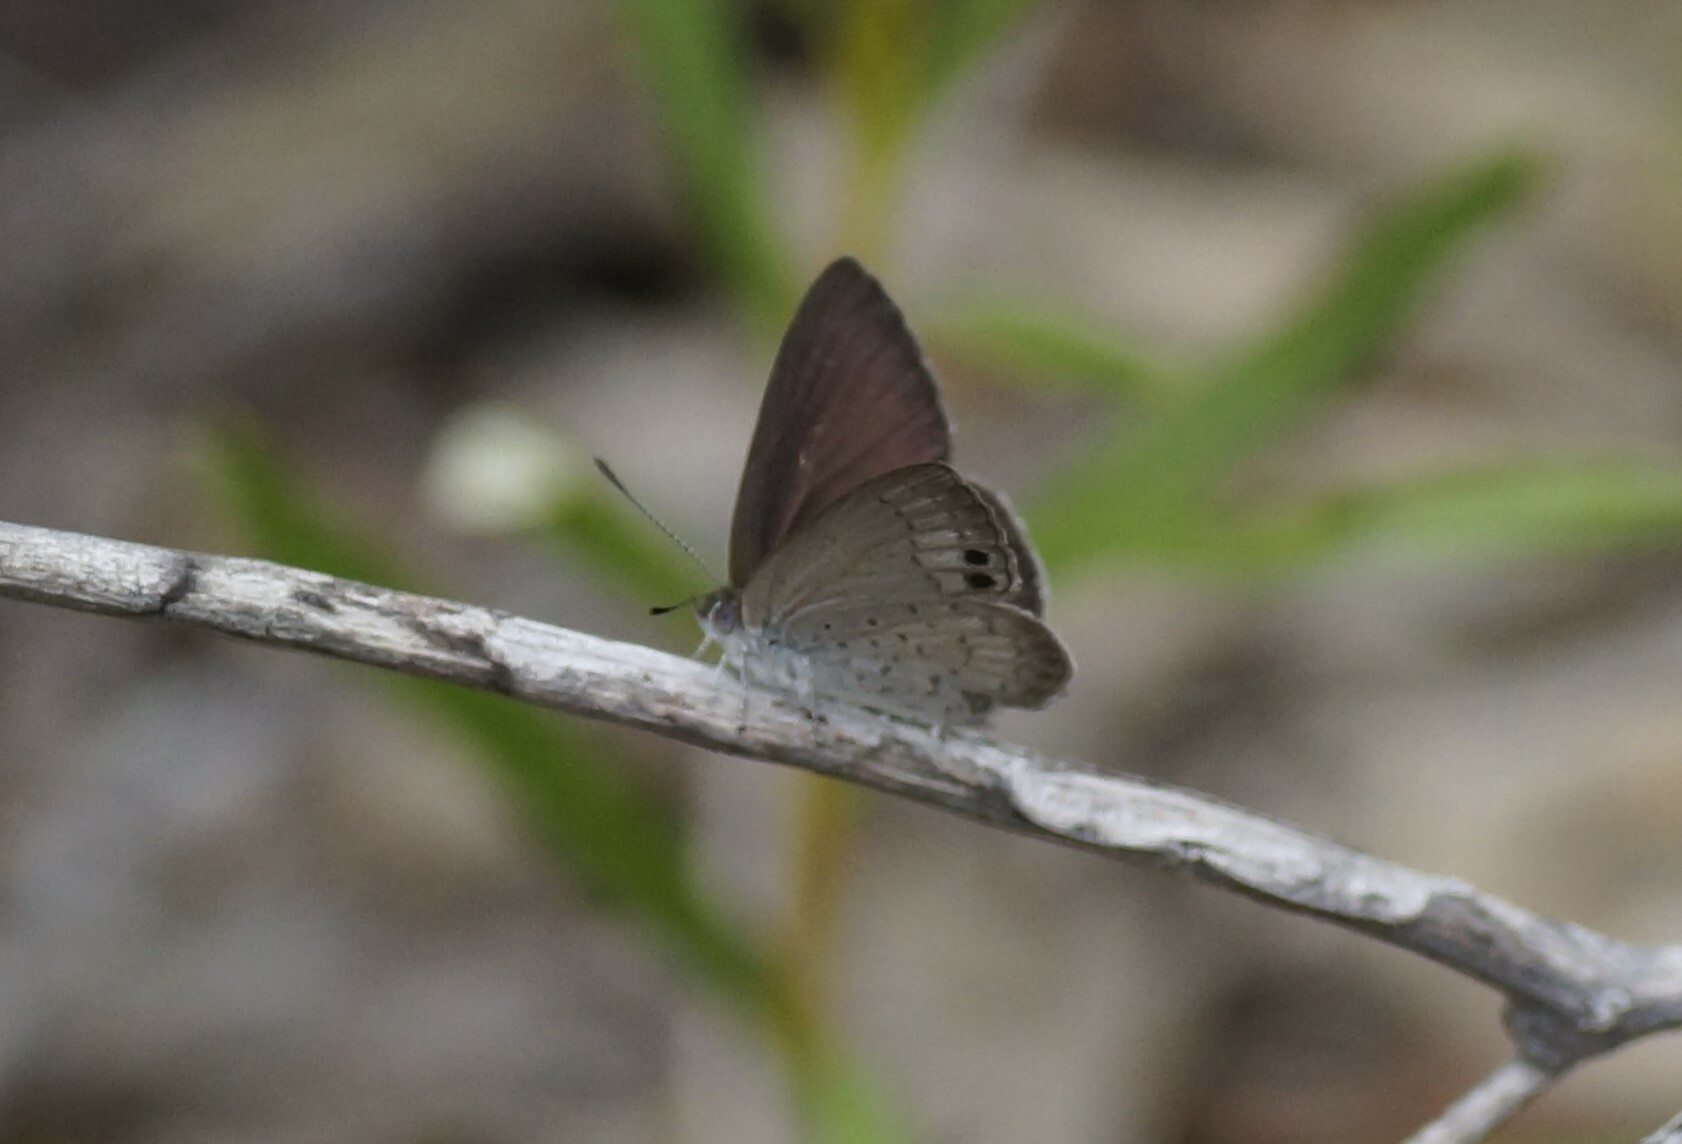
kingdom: Animalia
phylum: Arthropoda
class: Insecta
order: Lepidoptera
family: Lycaenidae
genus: Candalides
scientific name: Candalides
